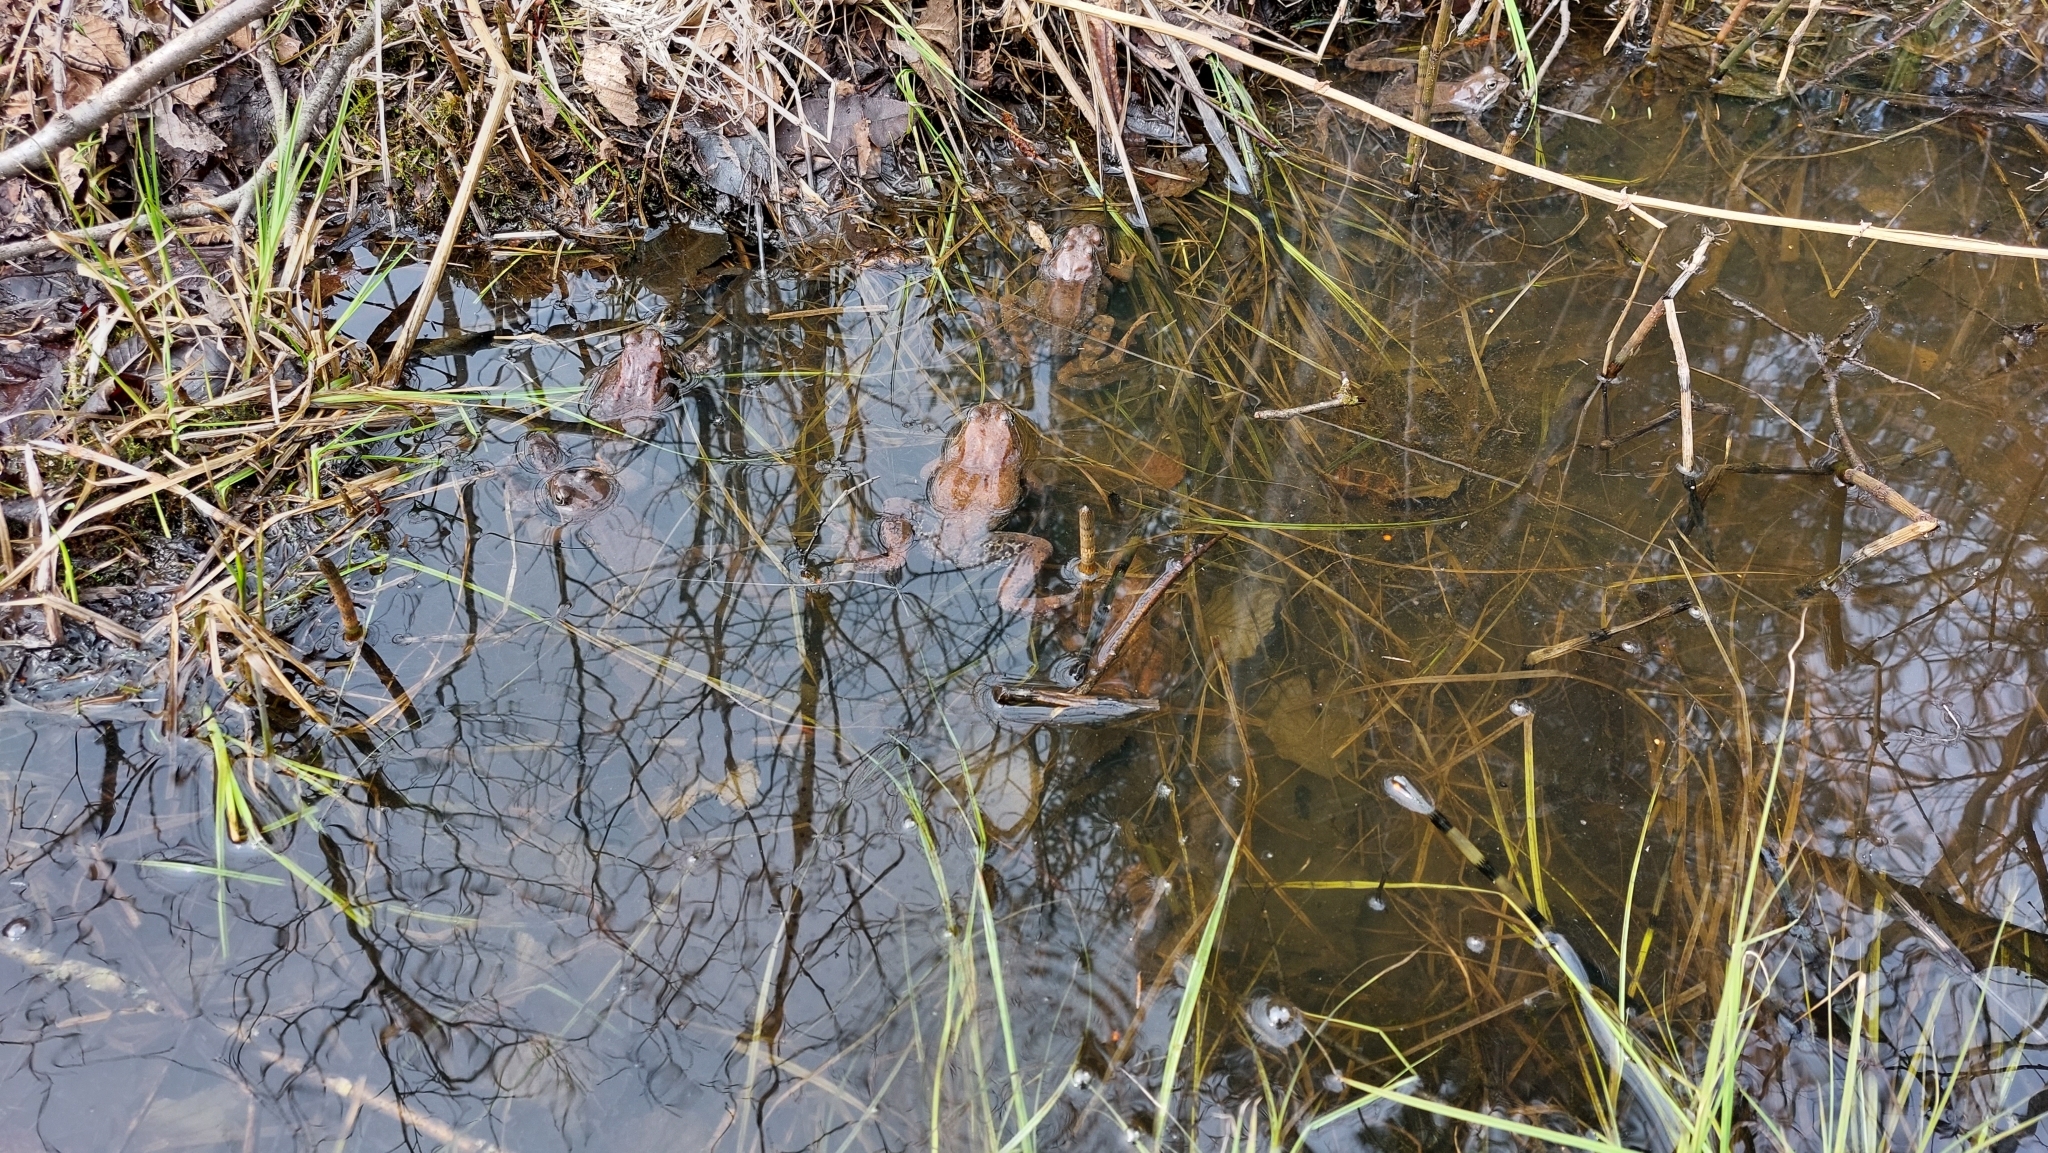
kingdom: Animalia
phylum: Chordata
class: Amphibia
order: Anura
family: Ranidae
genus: Rana
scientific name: Rana temporaria
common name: Common frog
